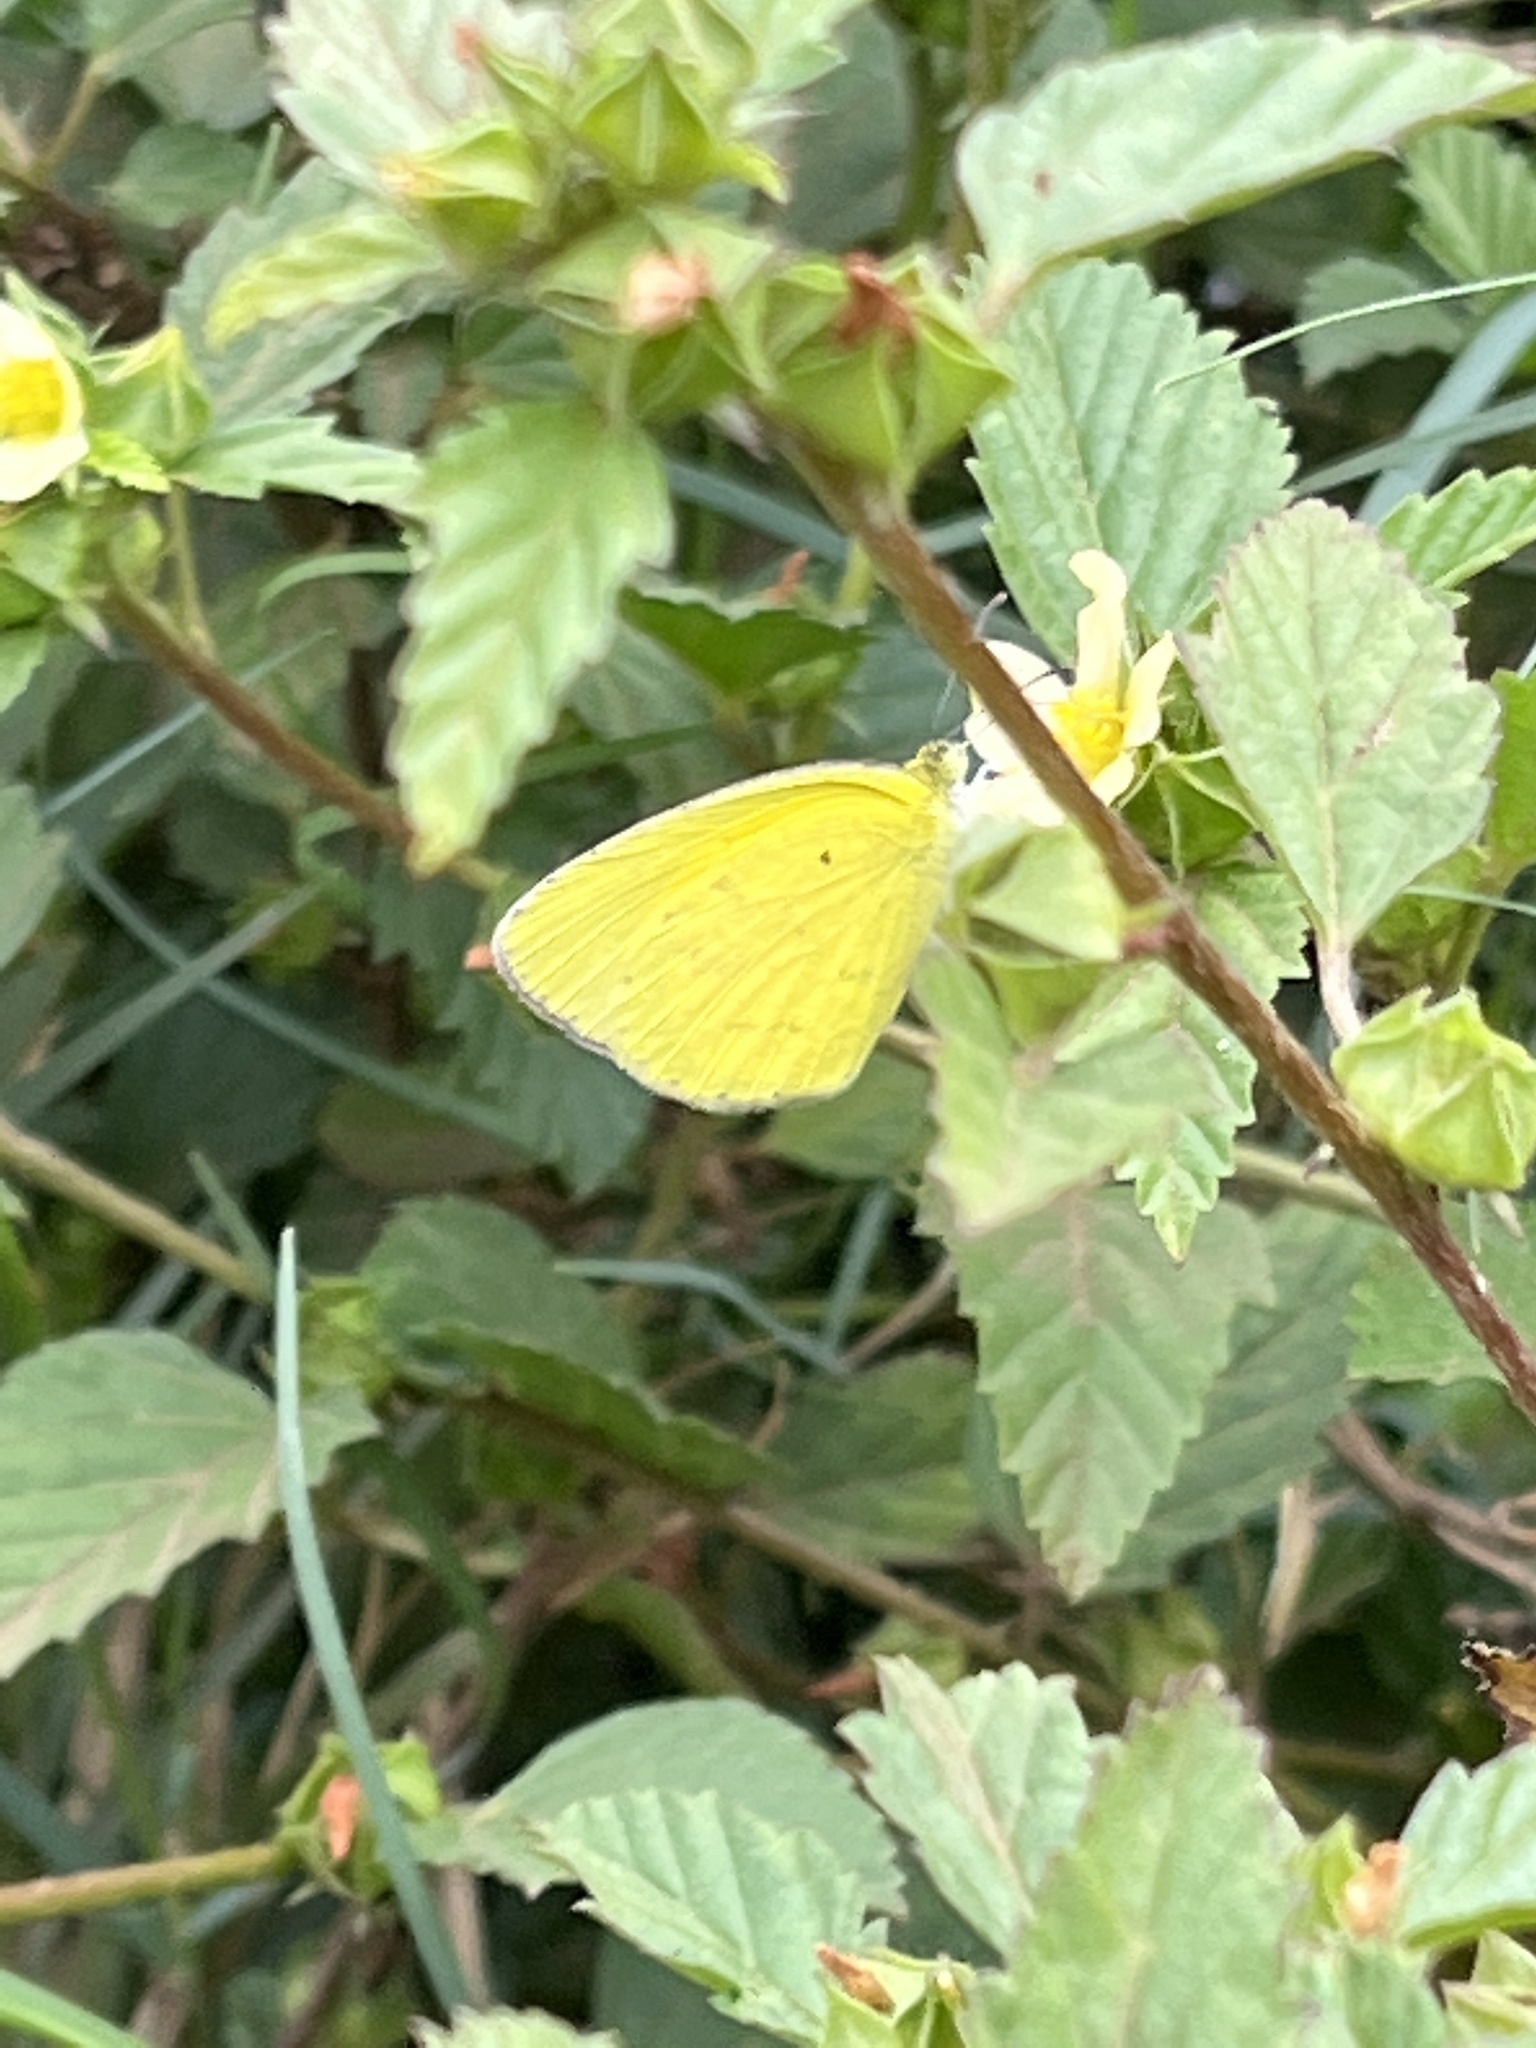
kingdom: Animalia
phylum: Arthropoda
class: Insecta
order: Lepidoptera
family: Pieridae
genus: Eurema
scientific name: Eurema brigitta
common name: Small grass yellow
